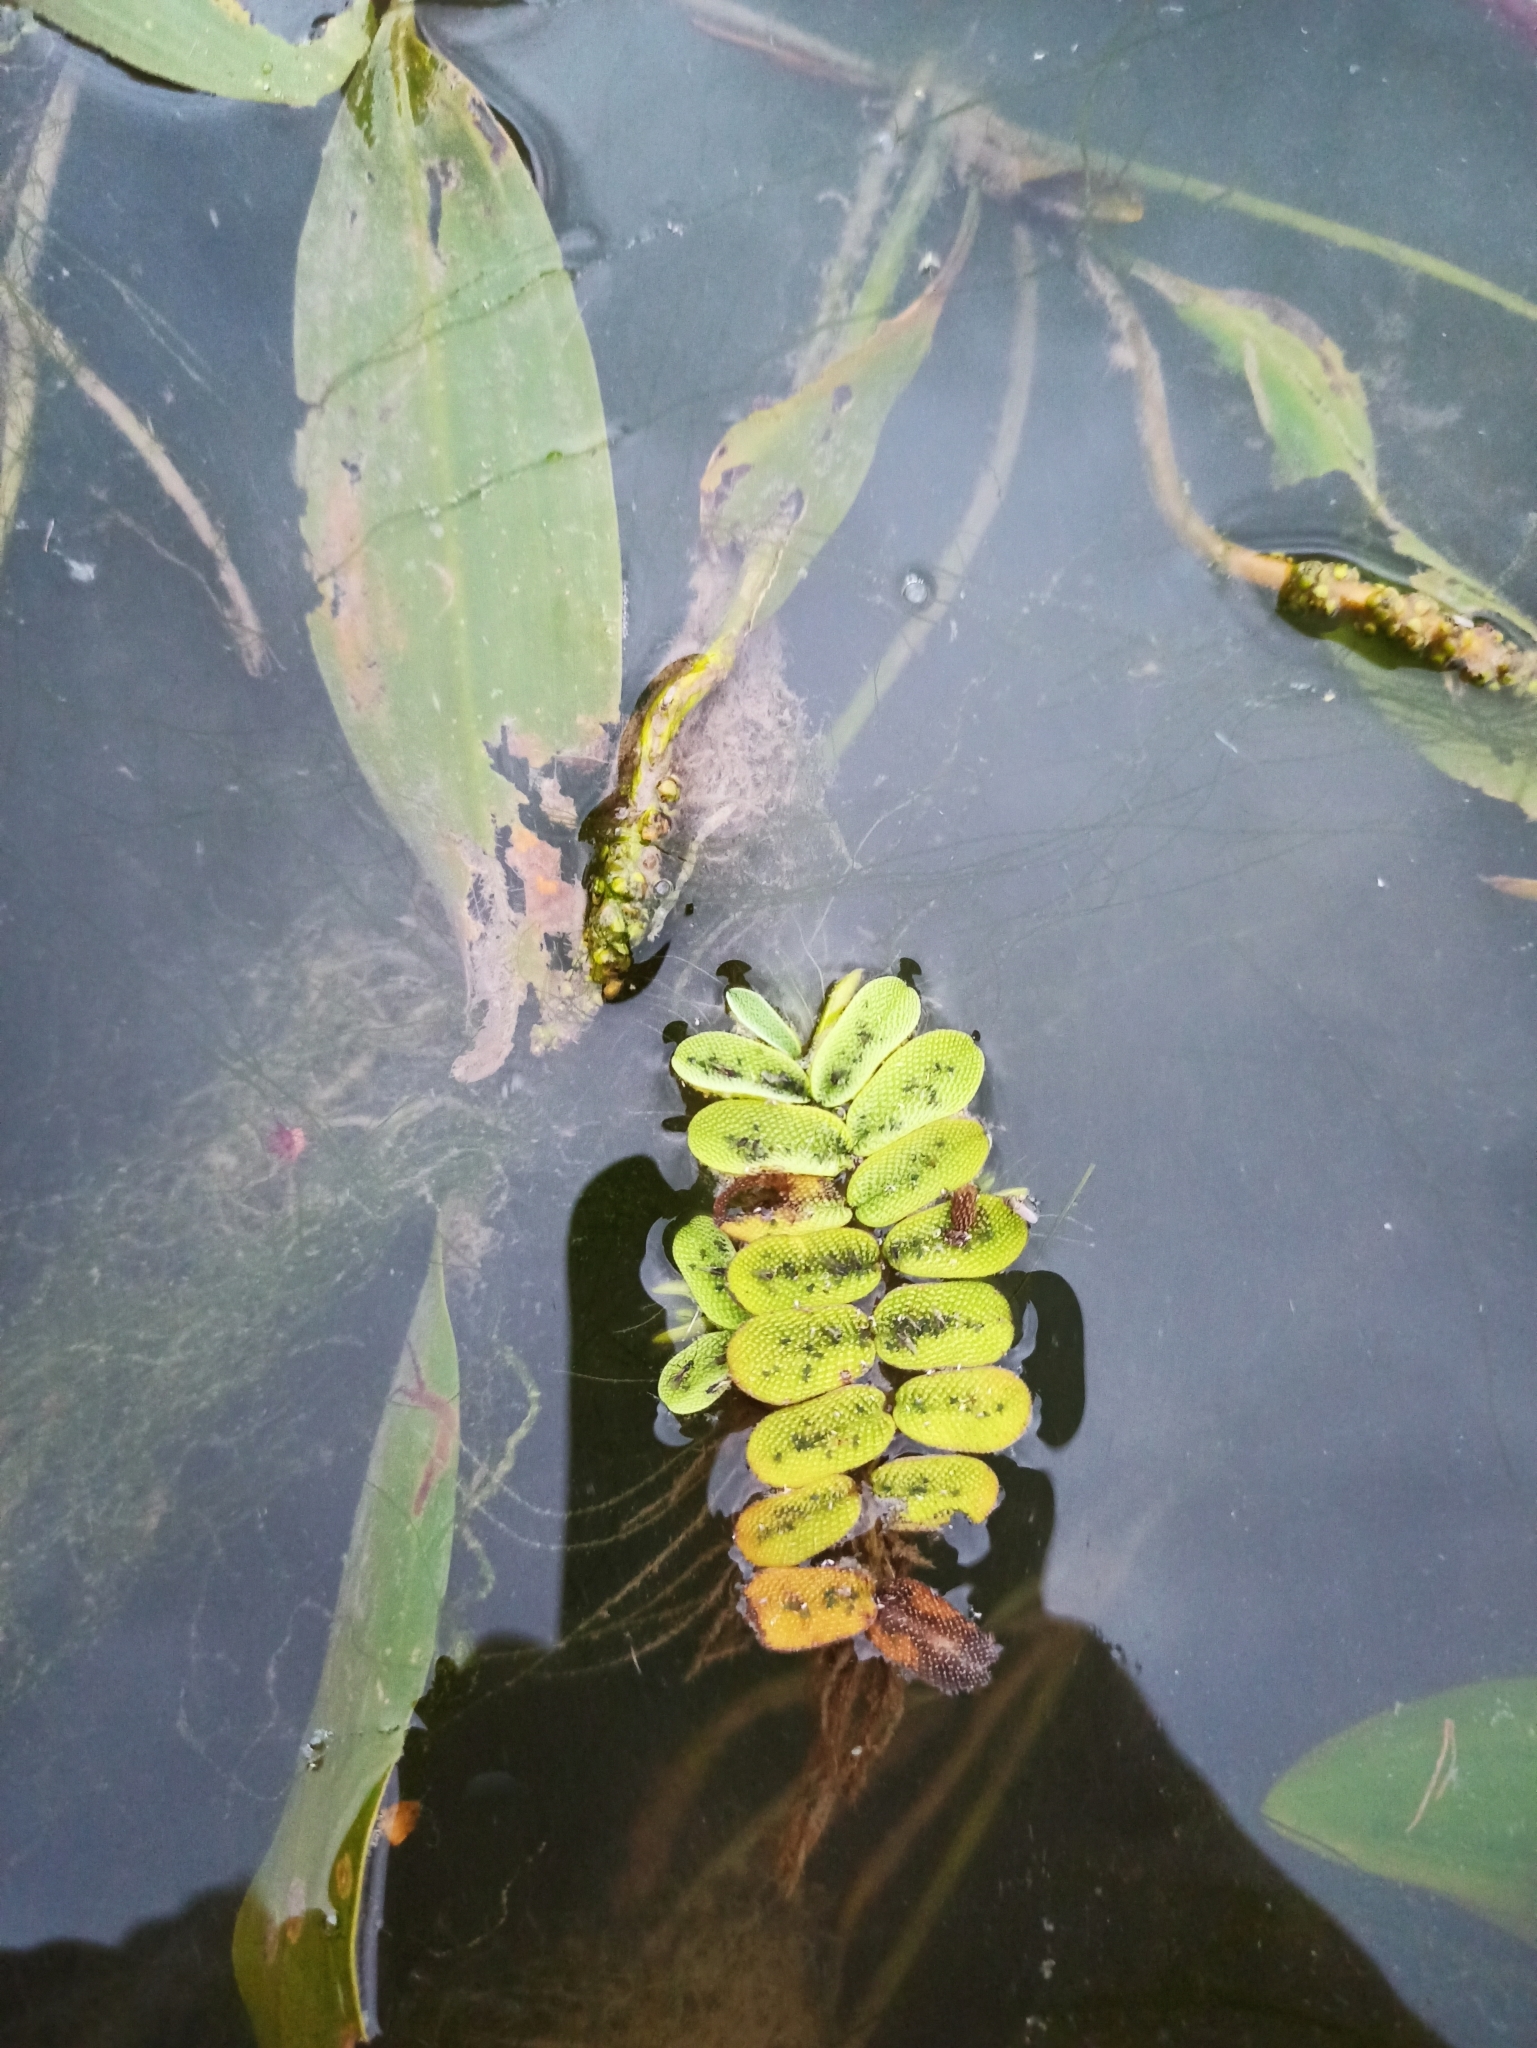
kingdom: Plantae
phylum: Tracheophyta
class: Polypodiopsida
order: Salviniales
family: Salviniaceae
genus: Salvinia
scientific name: Salvinia natans
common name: Floating fern
